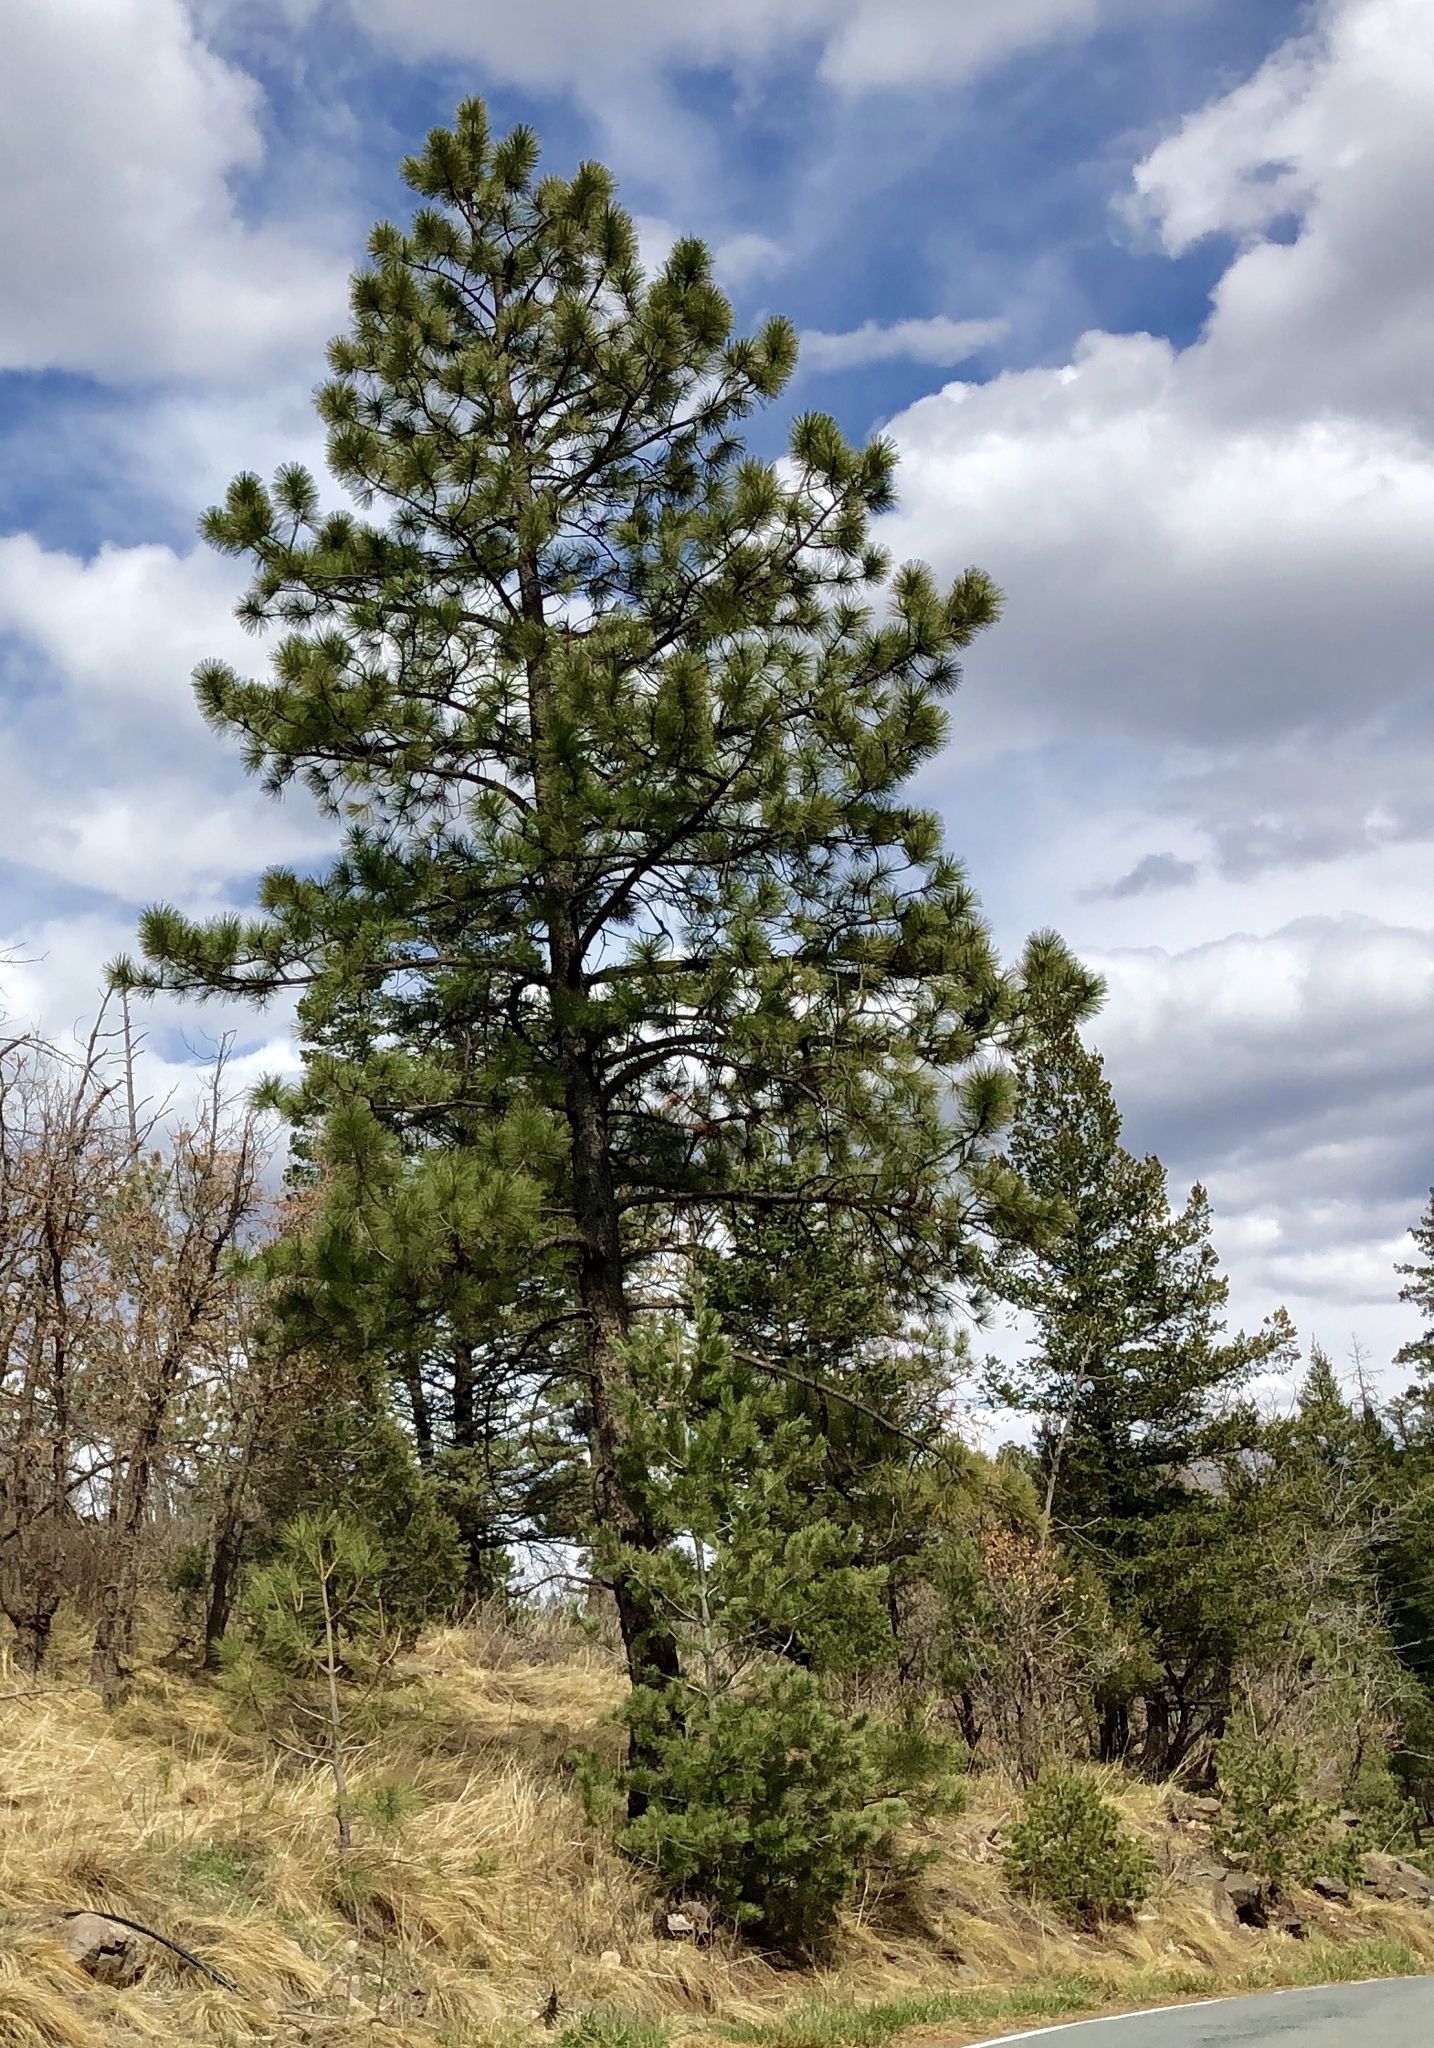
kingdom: Plantae
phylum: Tracheophyta
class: Pinopsida
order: Pinales
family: Pinaceae
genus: Pinus
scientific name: Pinus ponderosa
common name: Western yellow-pine
